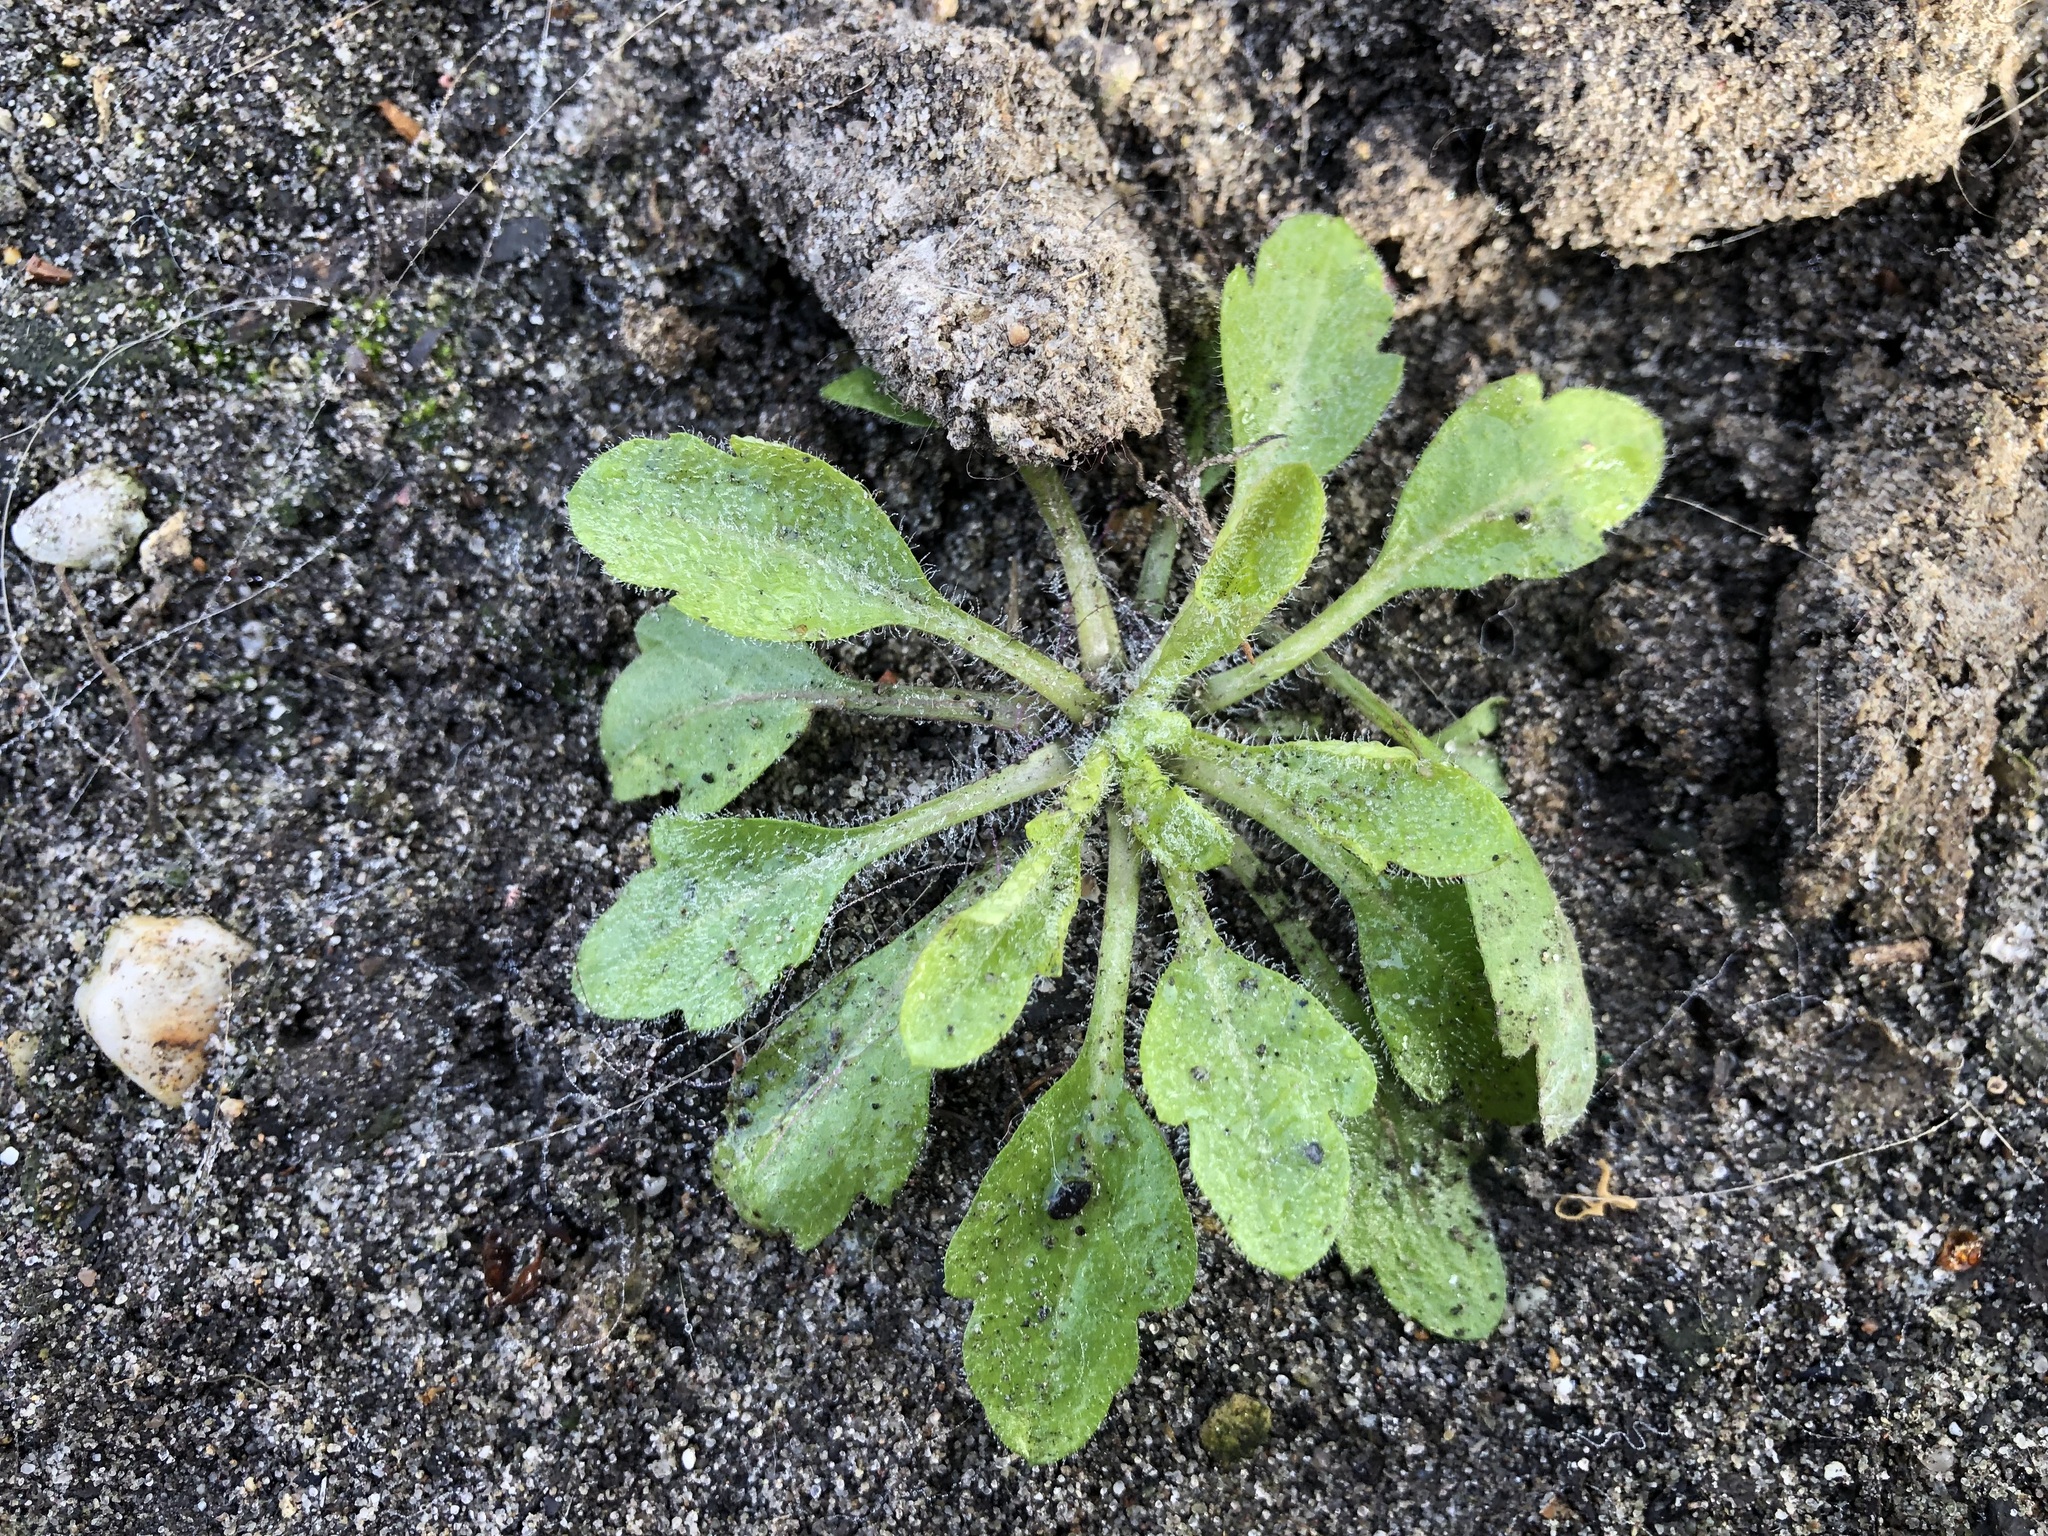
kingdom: Plantae
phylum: Tracheophyta
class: Magnoliopsida
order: Asterales
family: Asteraceae
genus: Erigeron
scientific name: Erigeron annuus
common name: Tall fleabane
